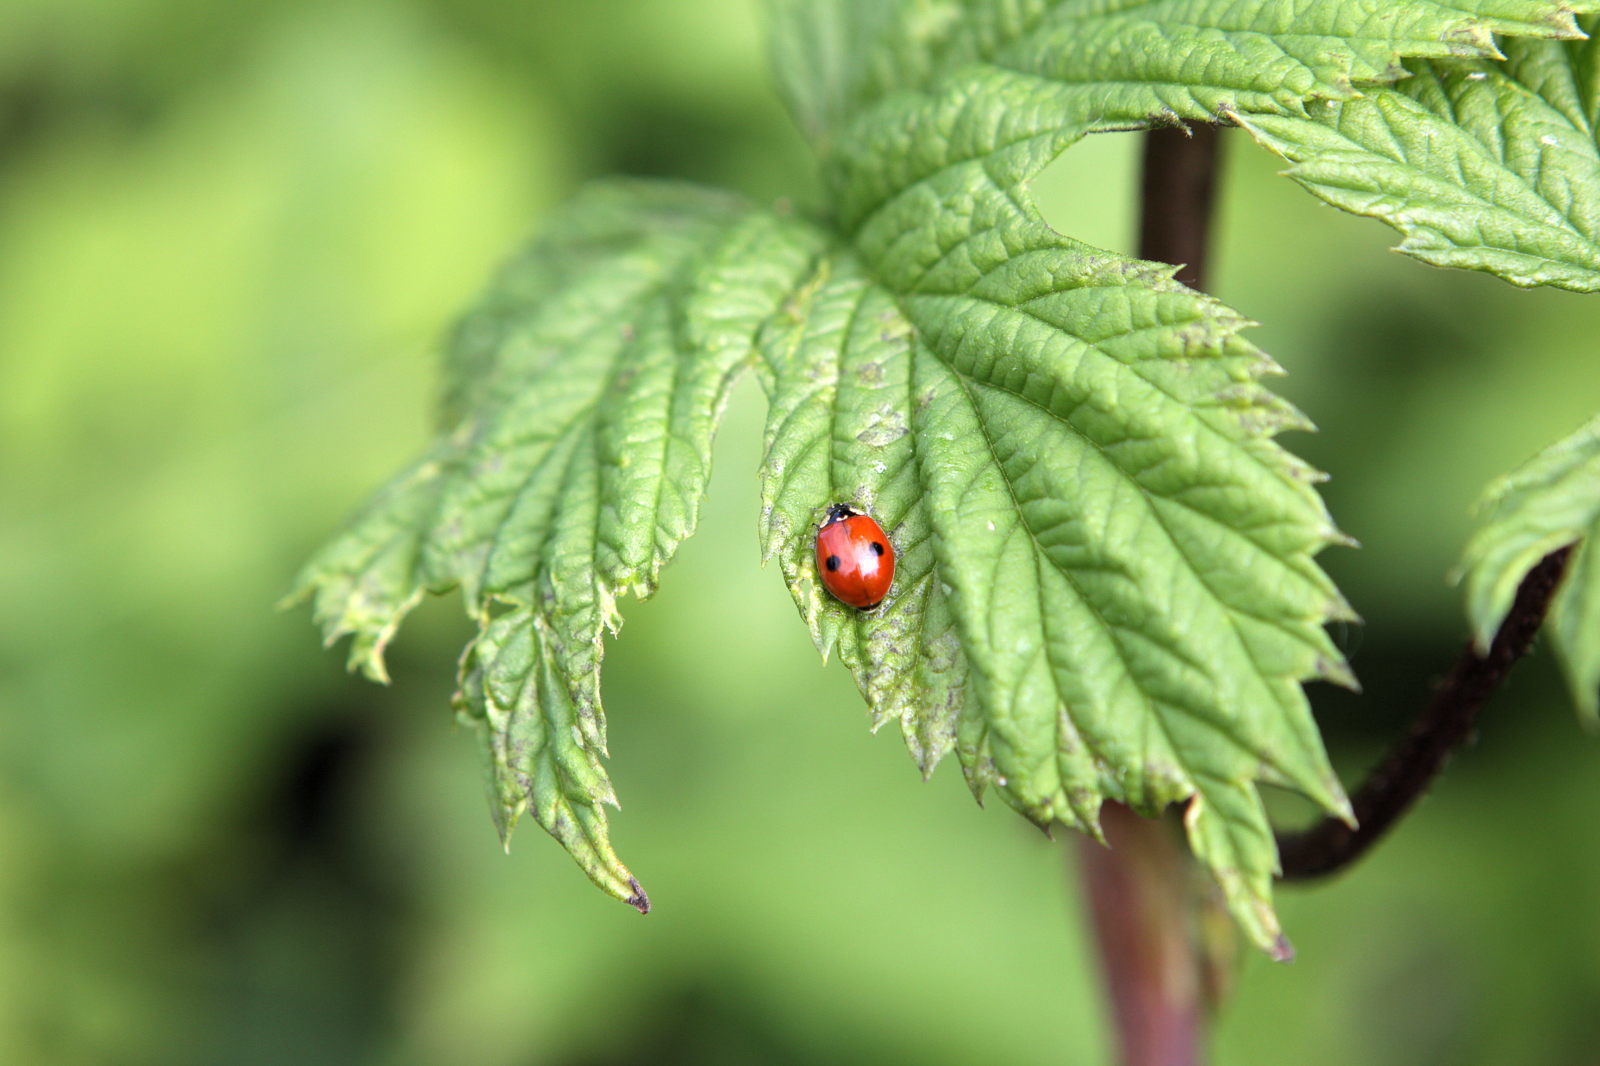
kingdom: Animalia
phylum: Arthropoda
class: Insecta
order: Coleoptera
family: Coccinellidae
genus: Adalia
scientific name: Adalia bipunctata
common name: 2-spot ladybird
